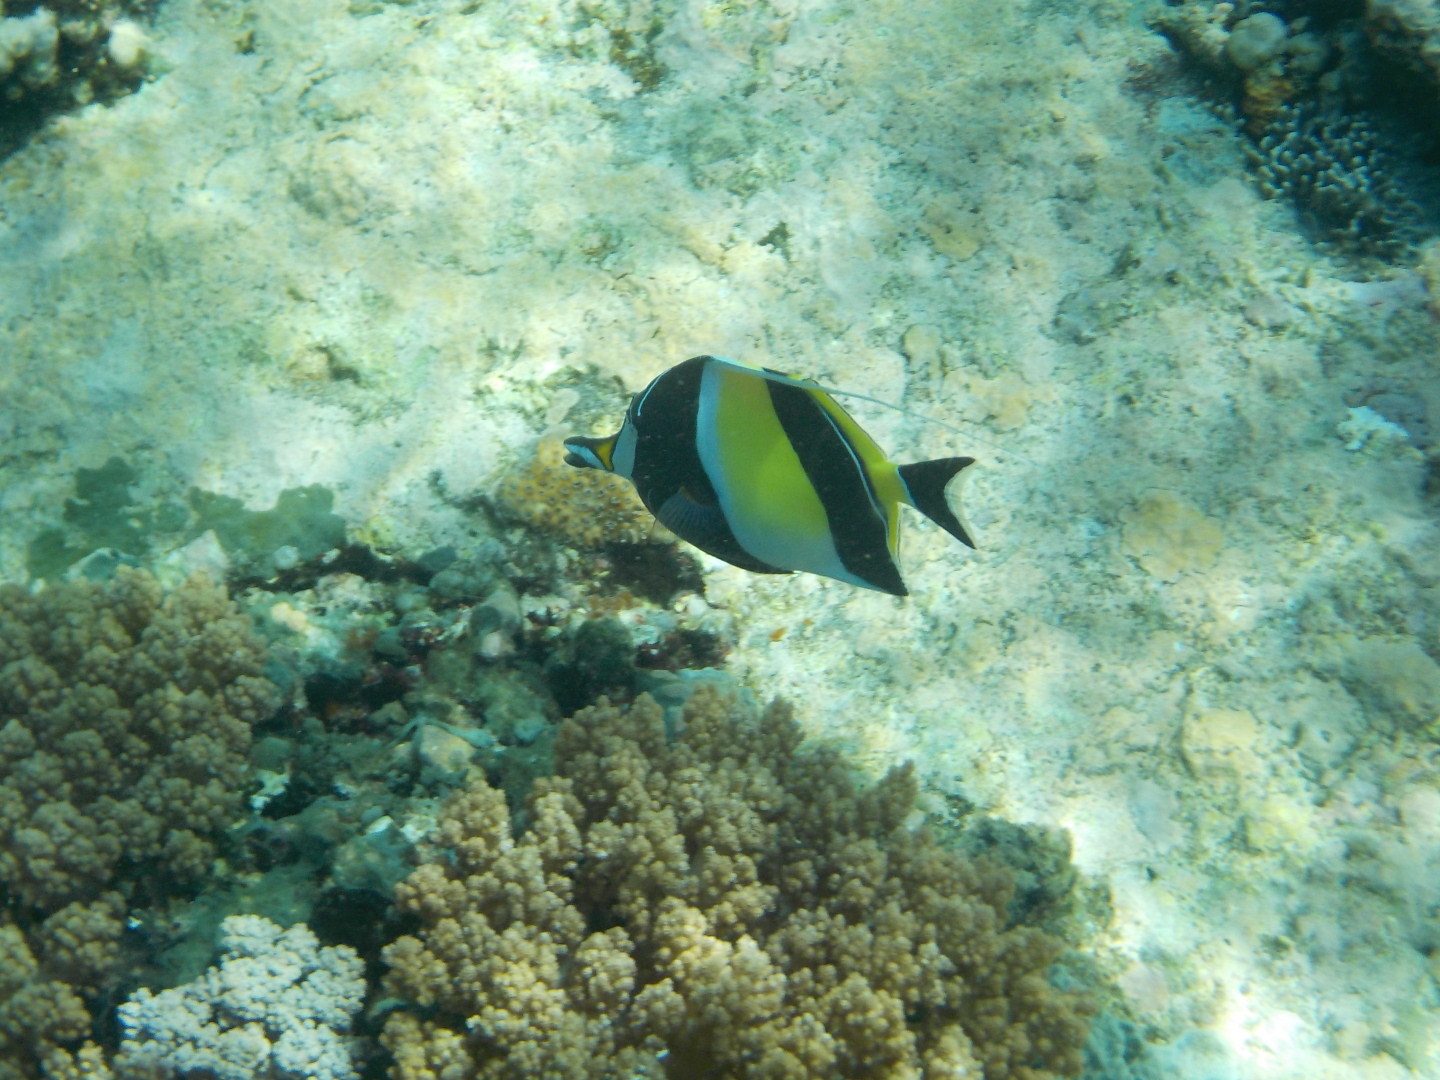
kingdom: Animalia
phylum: Chordata
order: Perciformes
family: Zanclidae
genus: Zanclus
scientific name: Zanclus cornutus
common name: Moorish idol
